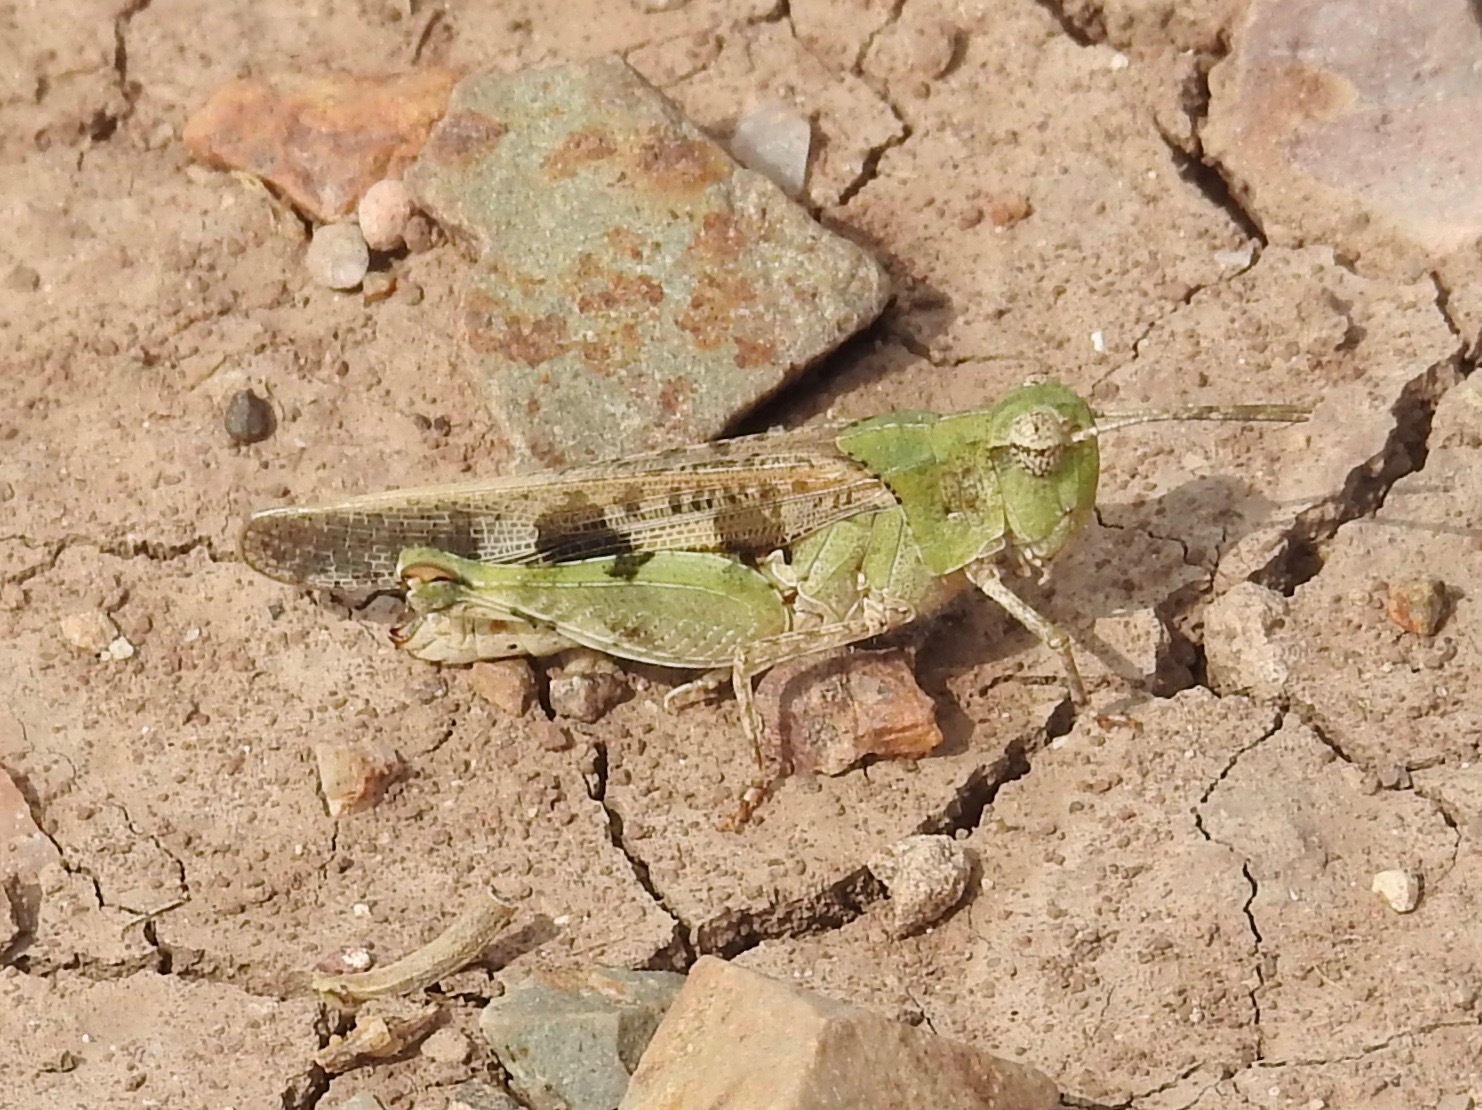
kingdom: Animalia
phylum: Arthropoda
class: Insecta
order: Orthoptera
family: Acrididae
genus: Nebulatettix
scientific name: Nebulatettix subgracilis
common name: Southwestern dusky grasshopper
